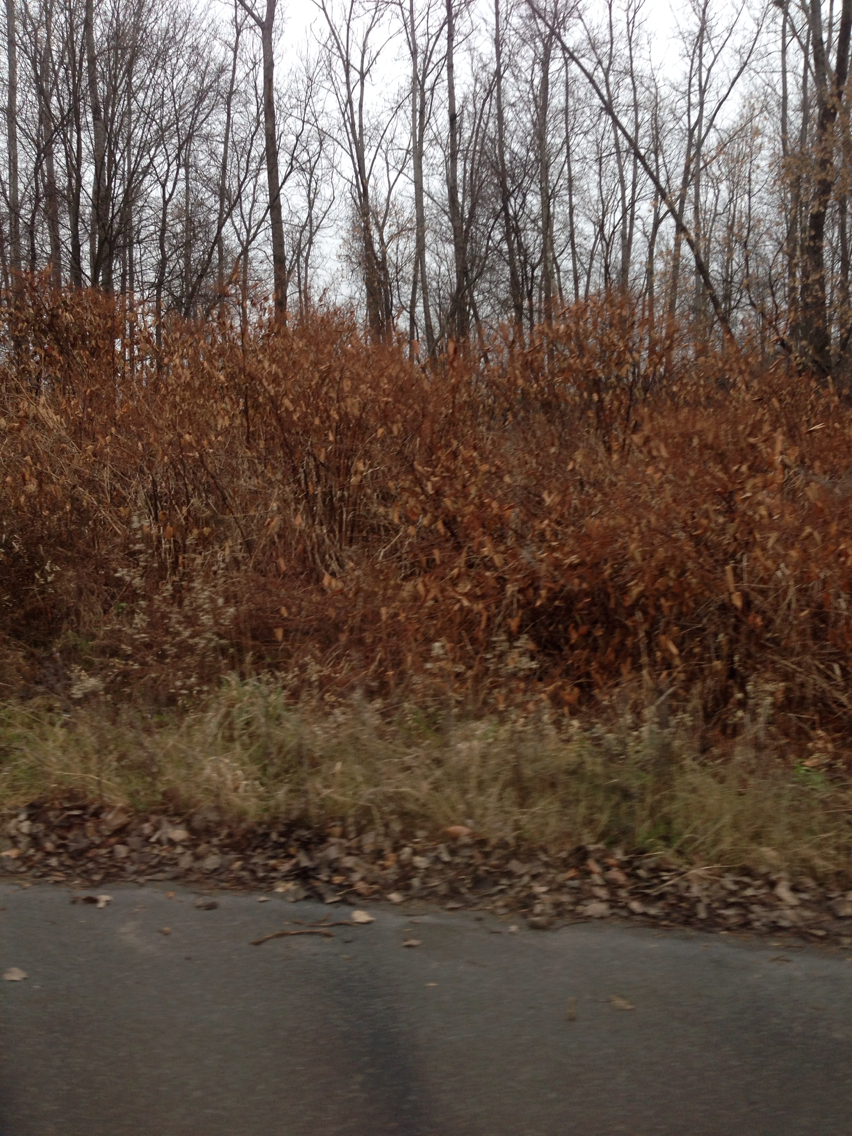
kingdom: Plantae
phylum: Tracheophyta
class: Magnoliopsida
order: Caryophyllales
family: Polygonaceae
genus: Reynoutria
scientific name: Reynoutria japonica
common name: Japanese knotweed
